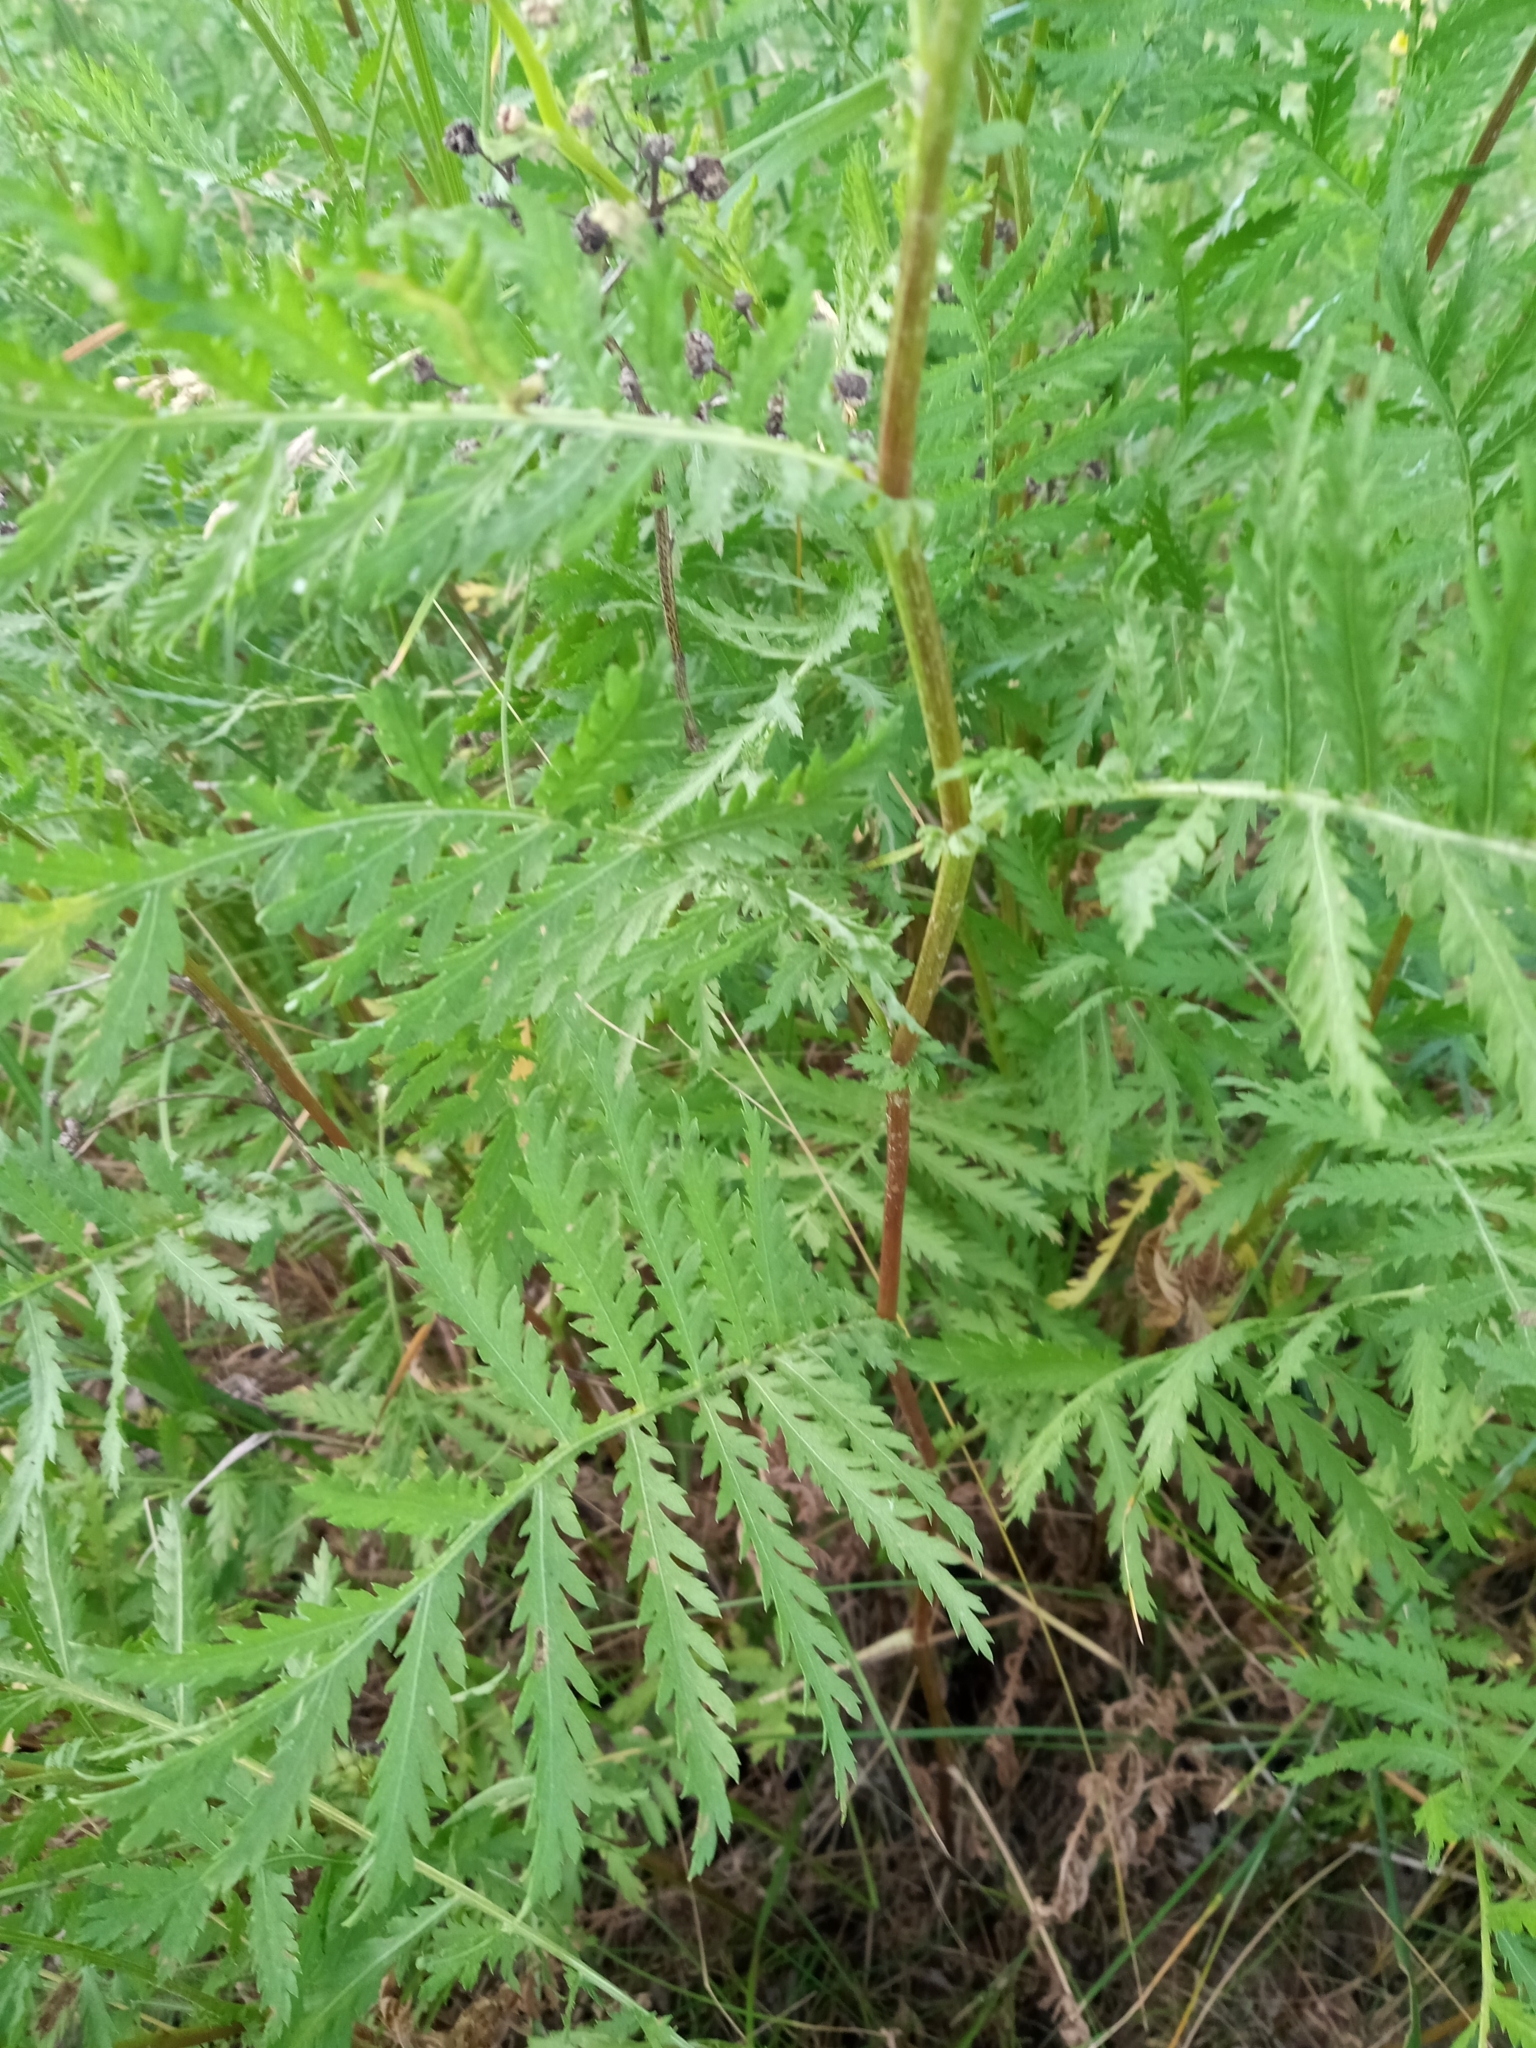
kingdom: Plantae
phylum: Tracheophyta
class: Magnoliopsida
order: Asterales
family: Asteraceae
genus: Tanacetum
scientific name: Tanacetum vulgare
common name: Common tansy
